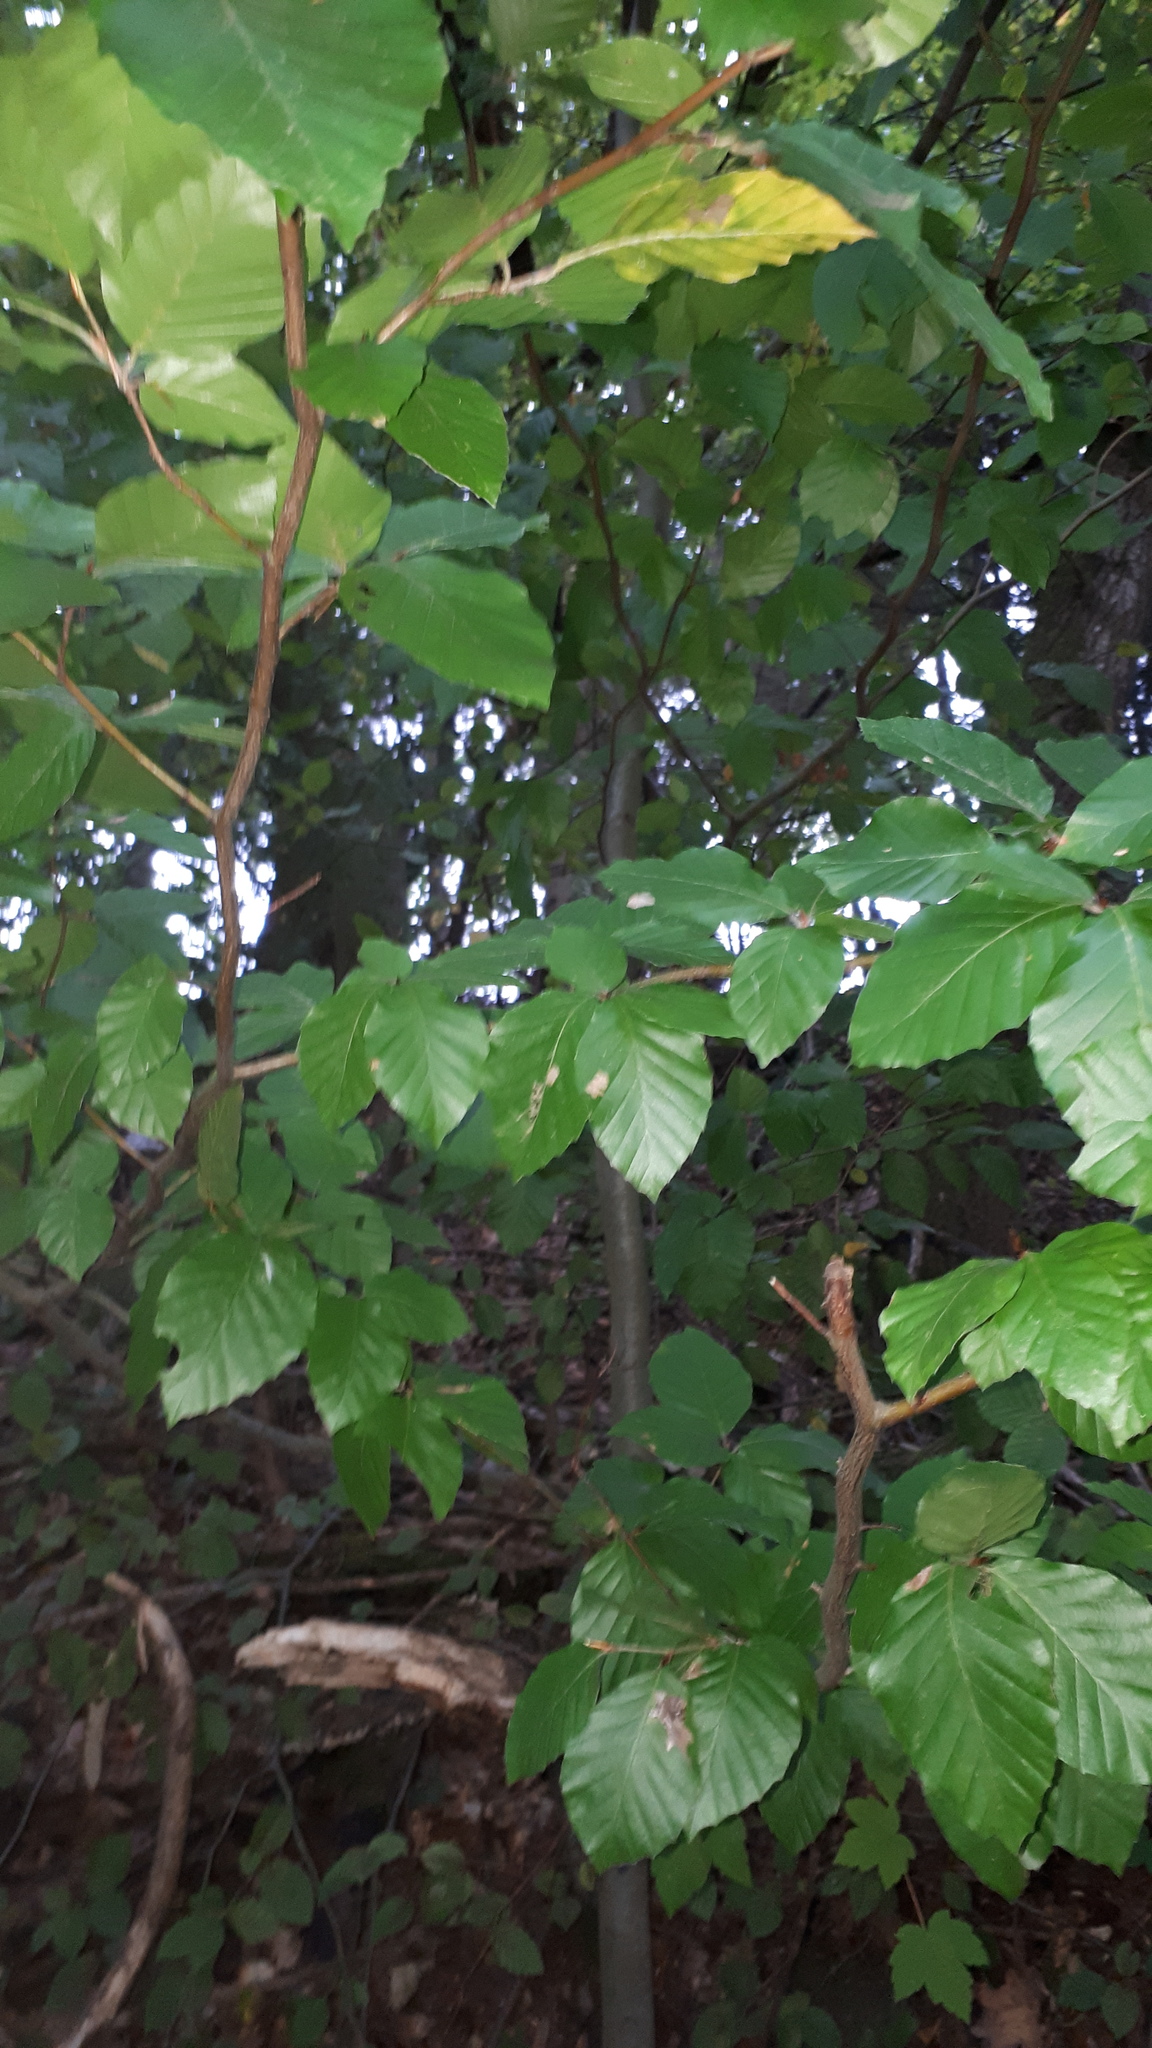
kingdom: Plantae
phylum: Tracheophyta
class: Magnoliopsida
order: Fagales
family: Fagaceae
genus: Fagus
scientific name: Fagus sylvatica
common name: Beech
